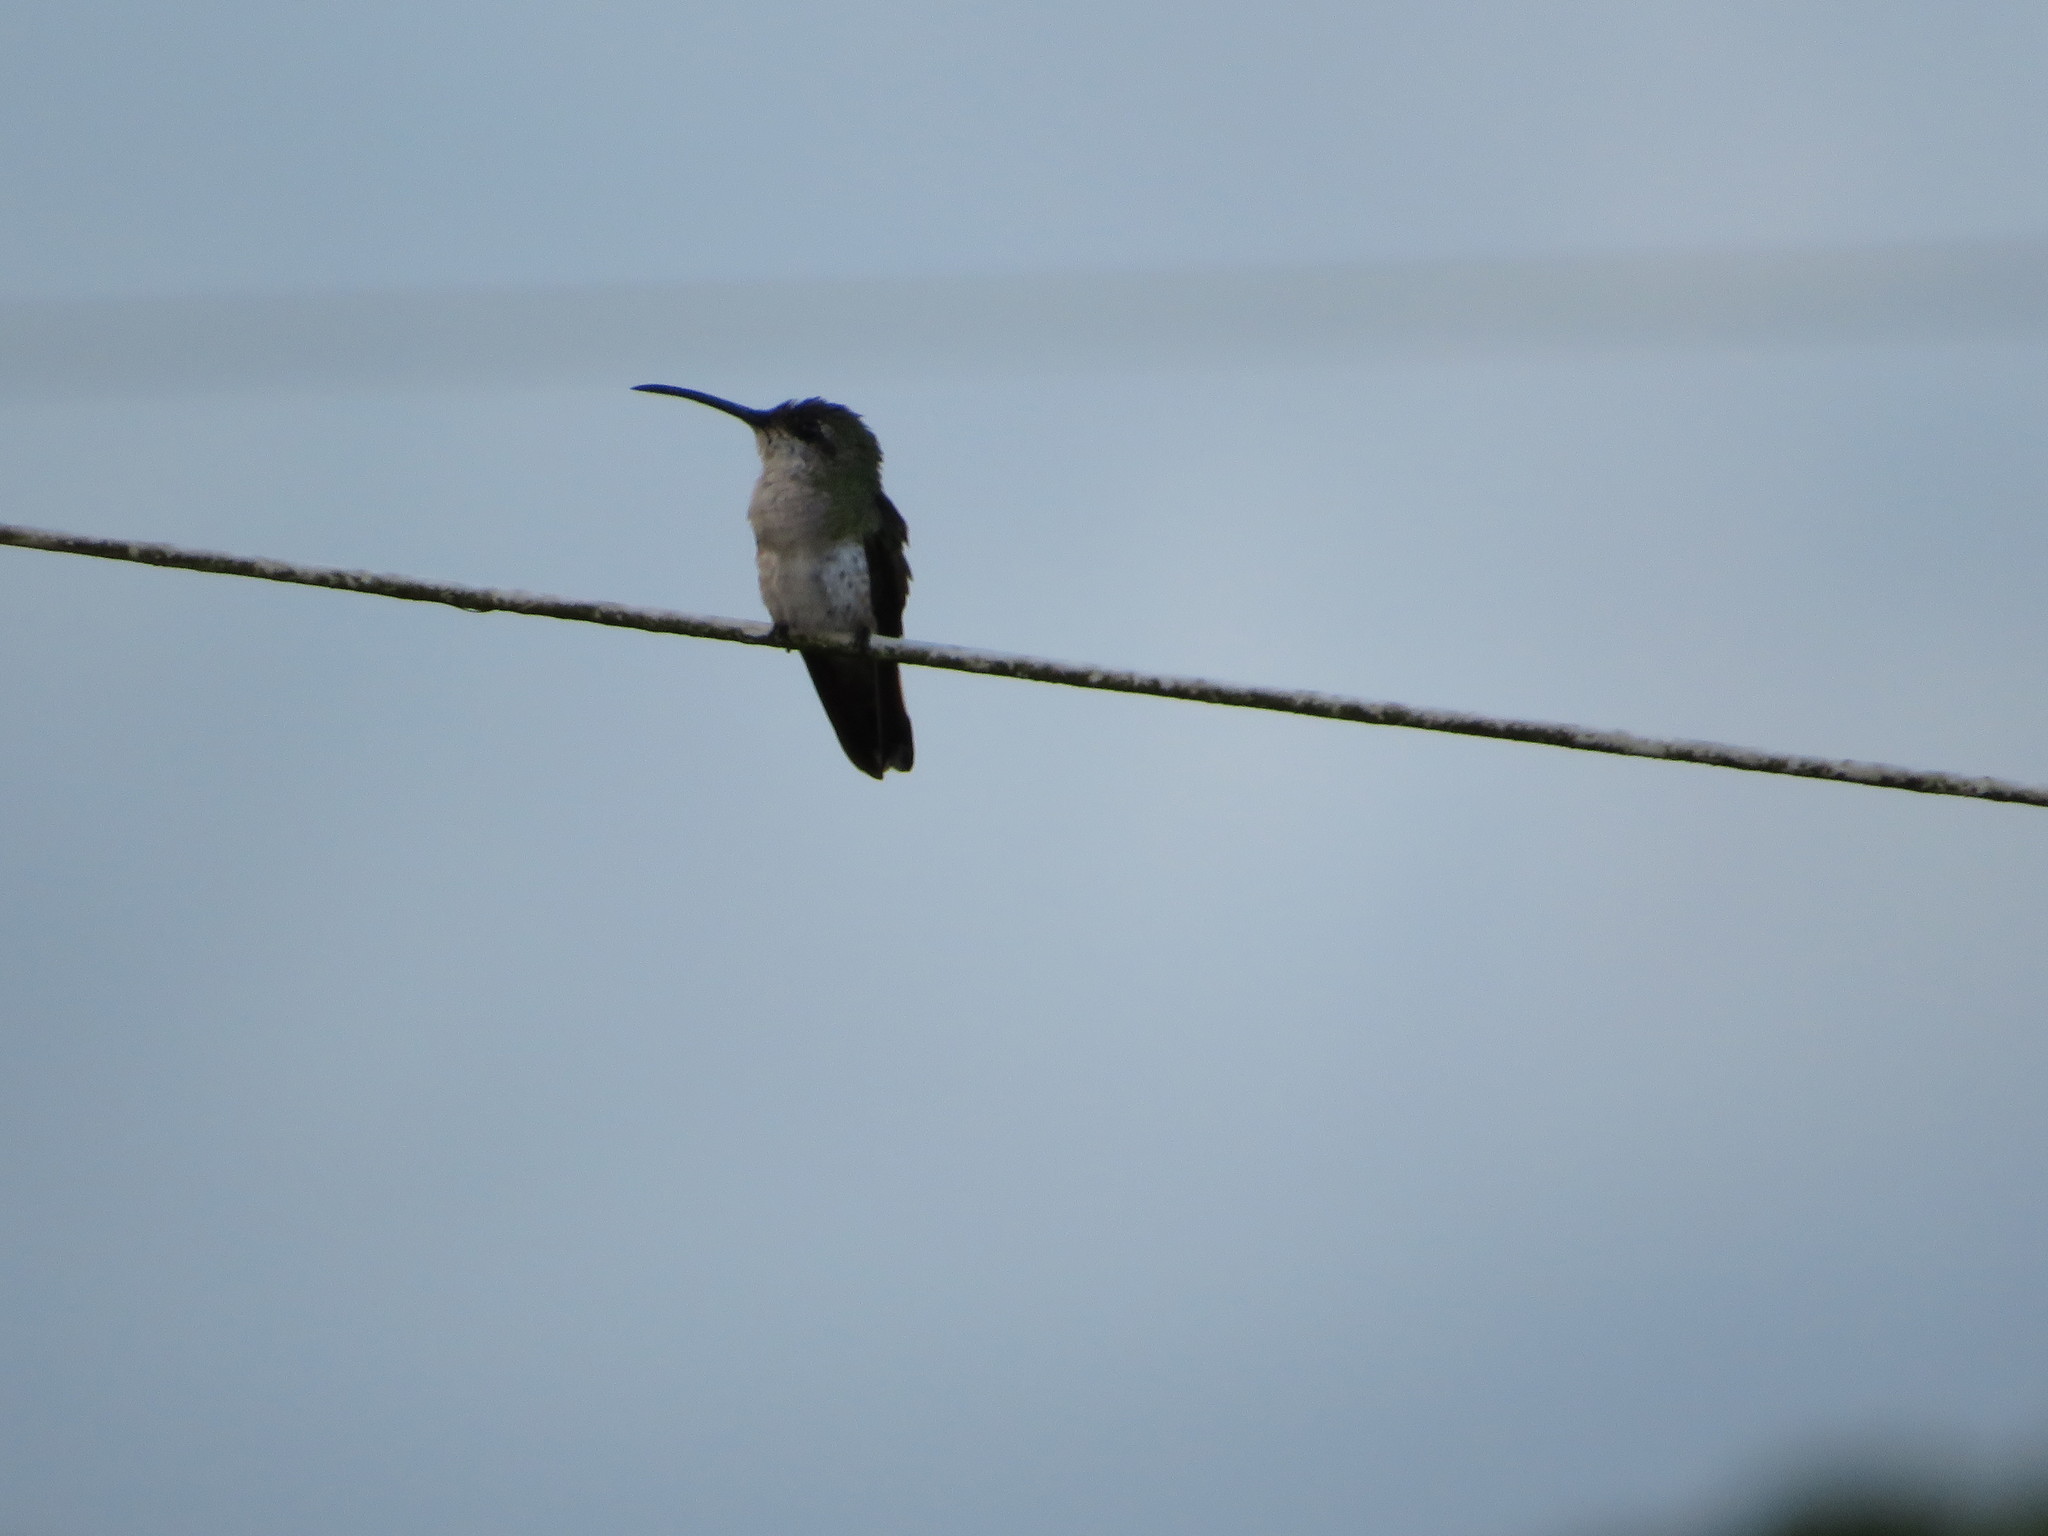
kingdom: Animalia
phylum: Chordata
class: Aves
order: Apodiformes
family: Trochilidae
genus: Mellisuga
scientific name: Mellisuga minima
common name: Vervain hummingbird
